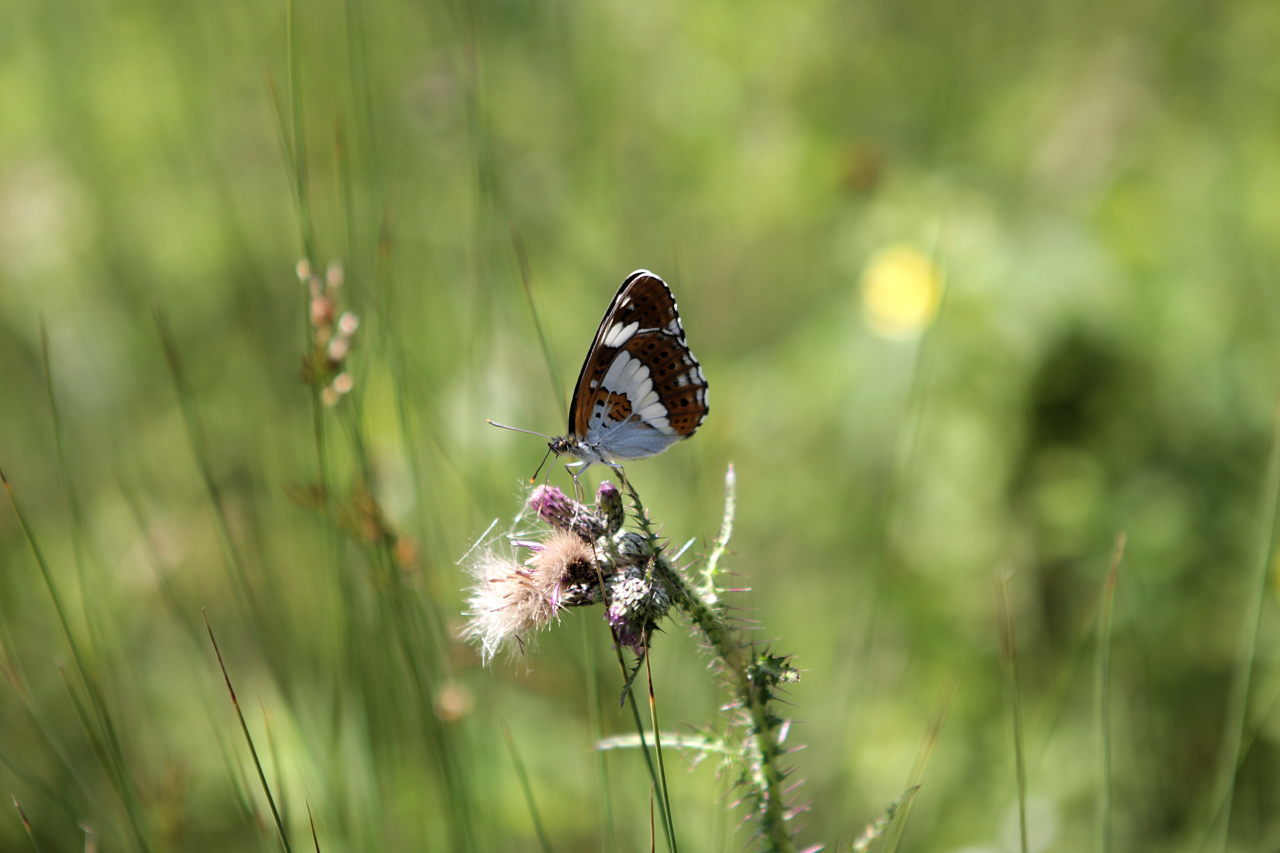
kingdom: Animalia
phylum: Arthropoda
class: Insecta
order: Lepidoptera
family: Nymphalidae
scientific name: Nymphalidae
